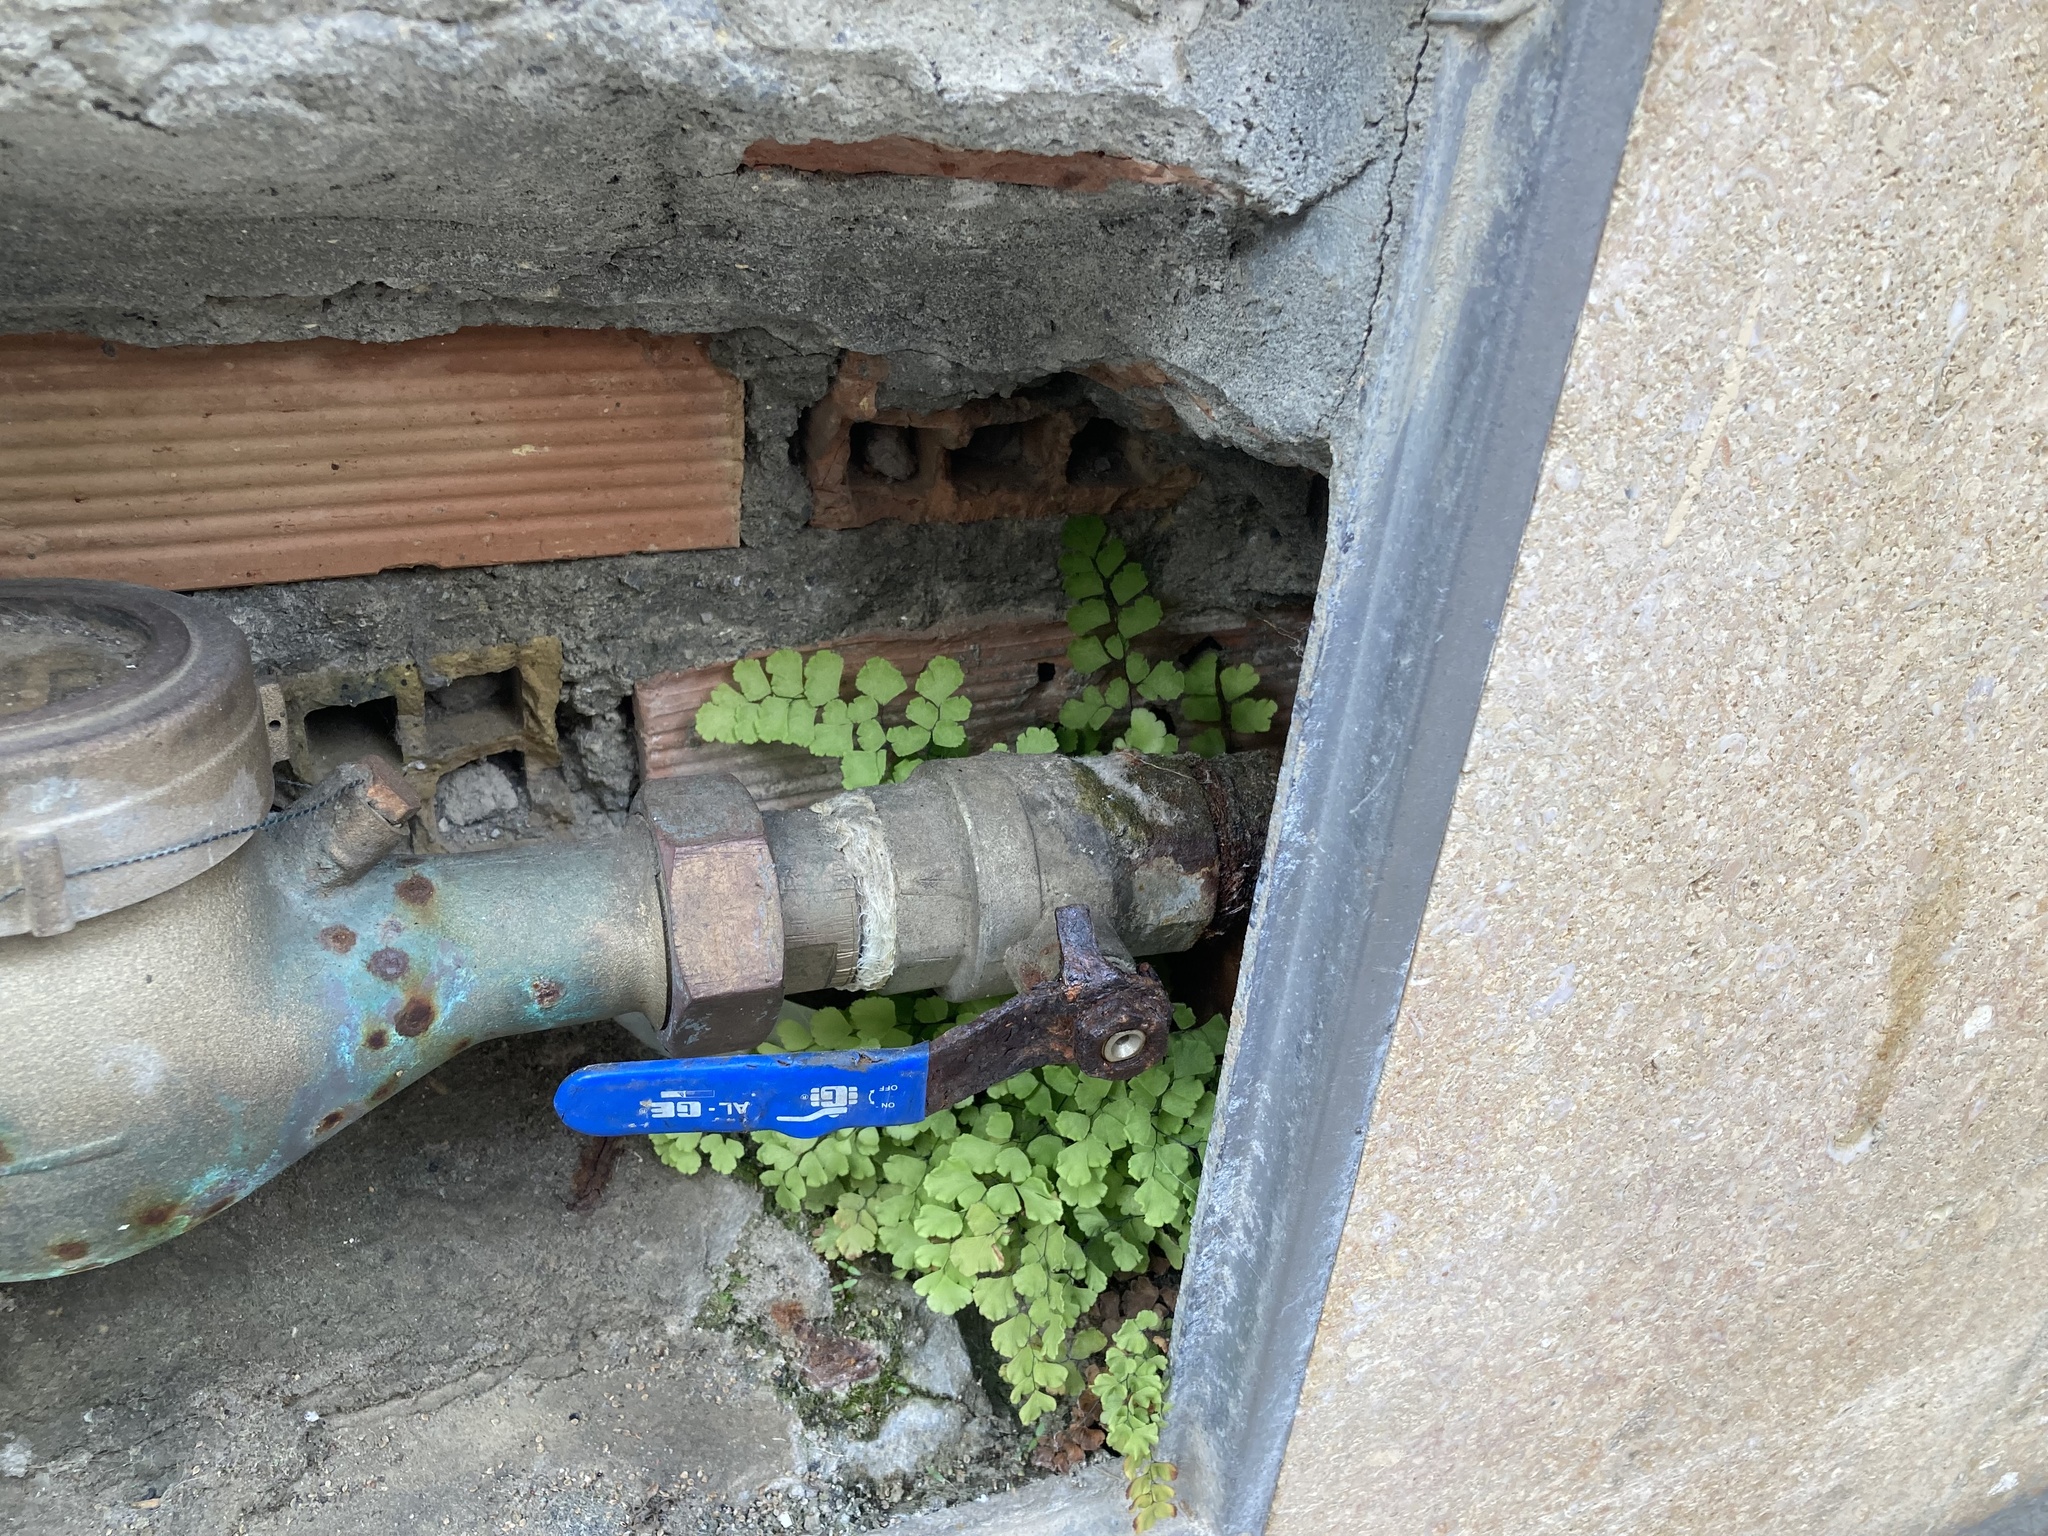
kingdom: Plantae
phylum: Tracheophyta
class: Polypodiopsida
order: Polypodiales
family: Pteridaceae
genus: Adiantum
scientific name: Adiantum capillus-veneris
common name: Maidenhair fern
